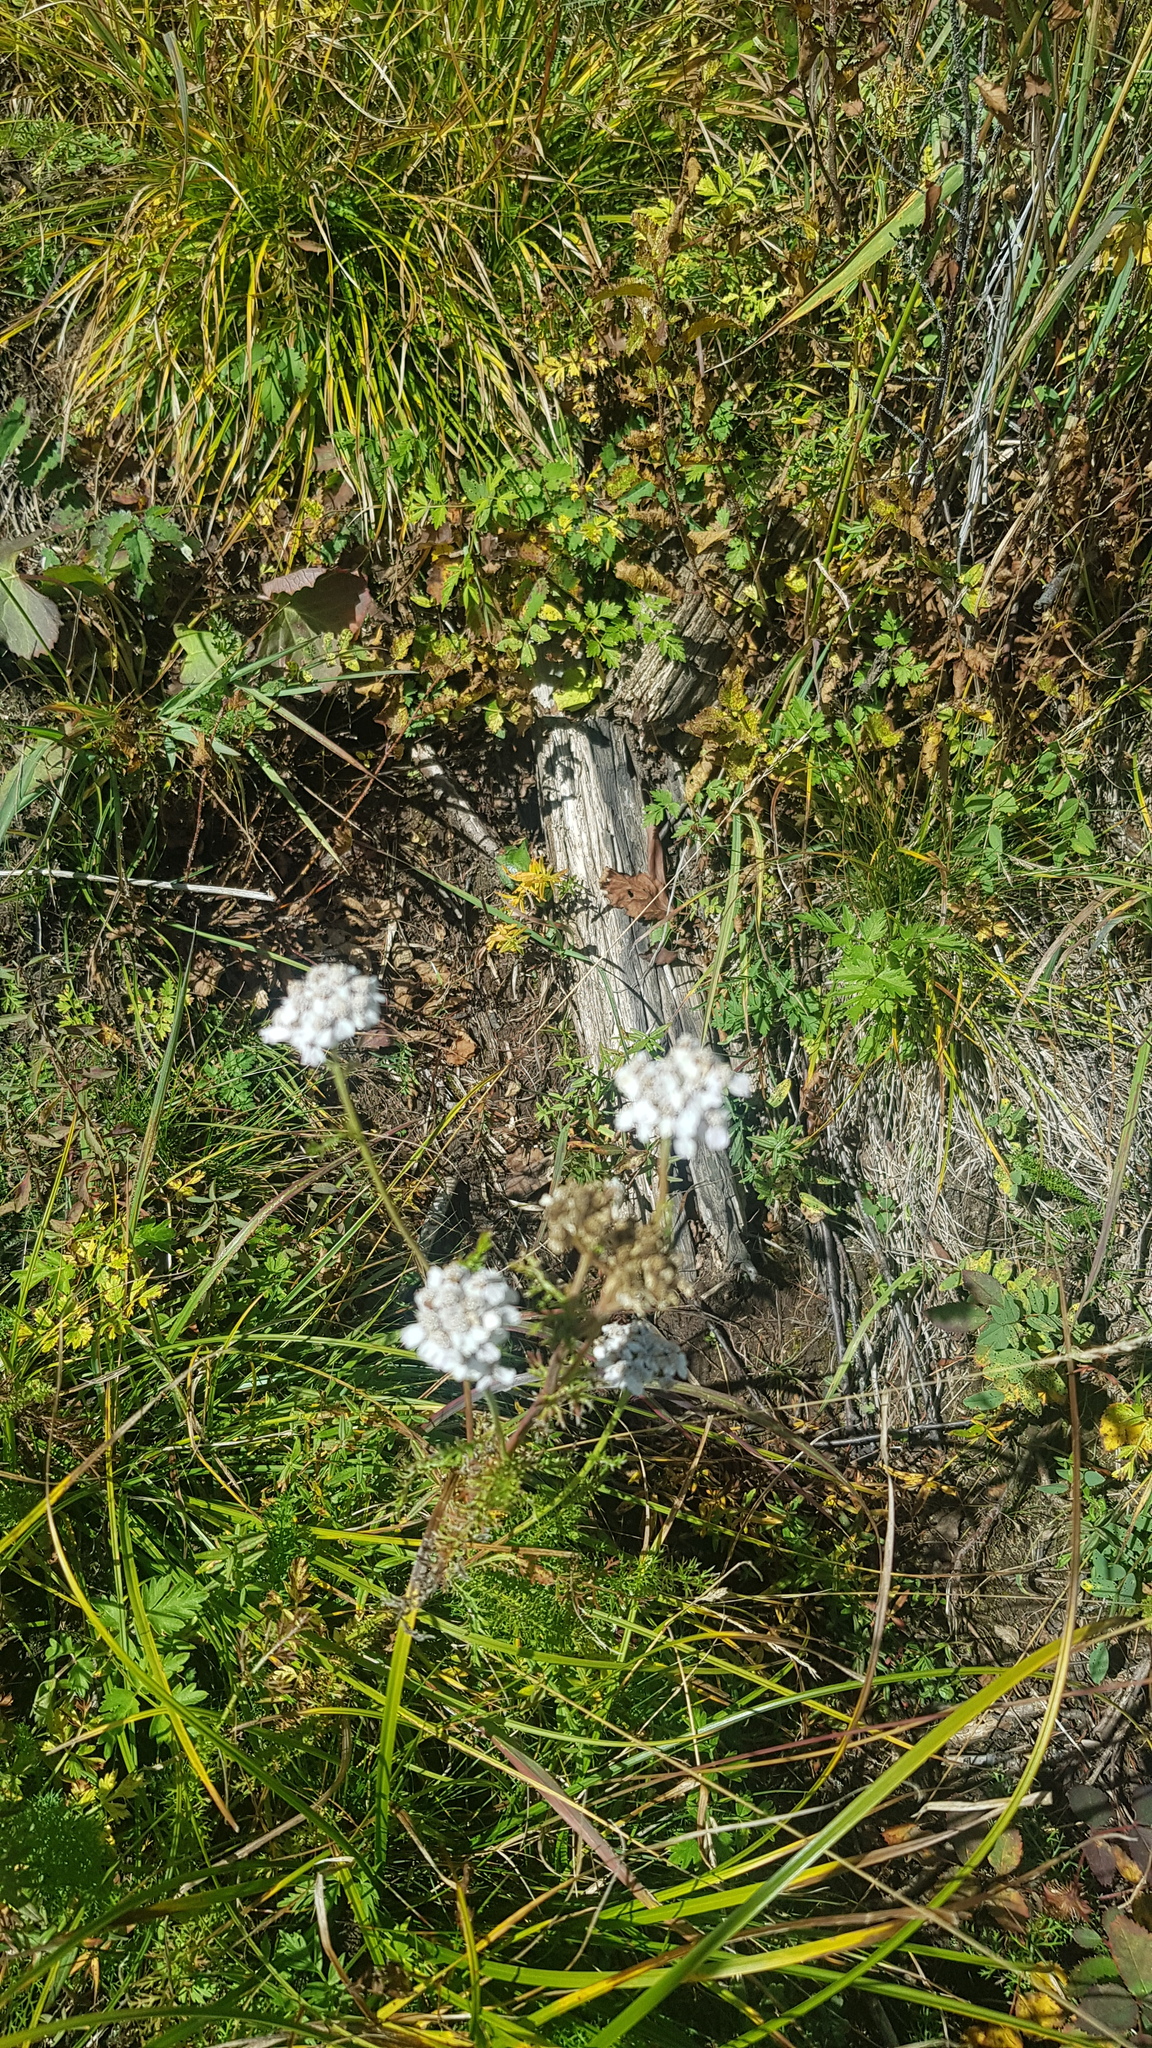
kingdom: Plantae
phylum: Tracheophyta
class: Magnoliopsida
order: Asterales
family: Asteraceae
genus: Achillea
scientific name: Achillea asiatica
